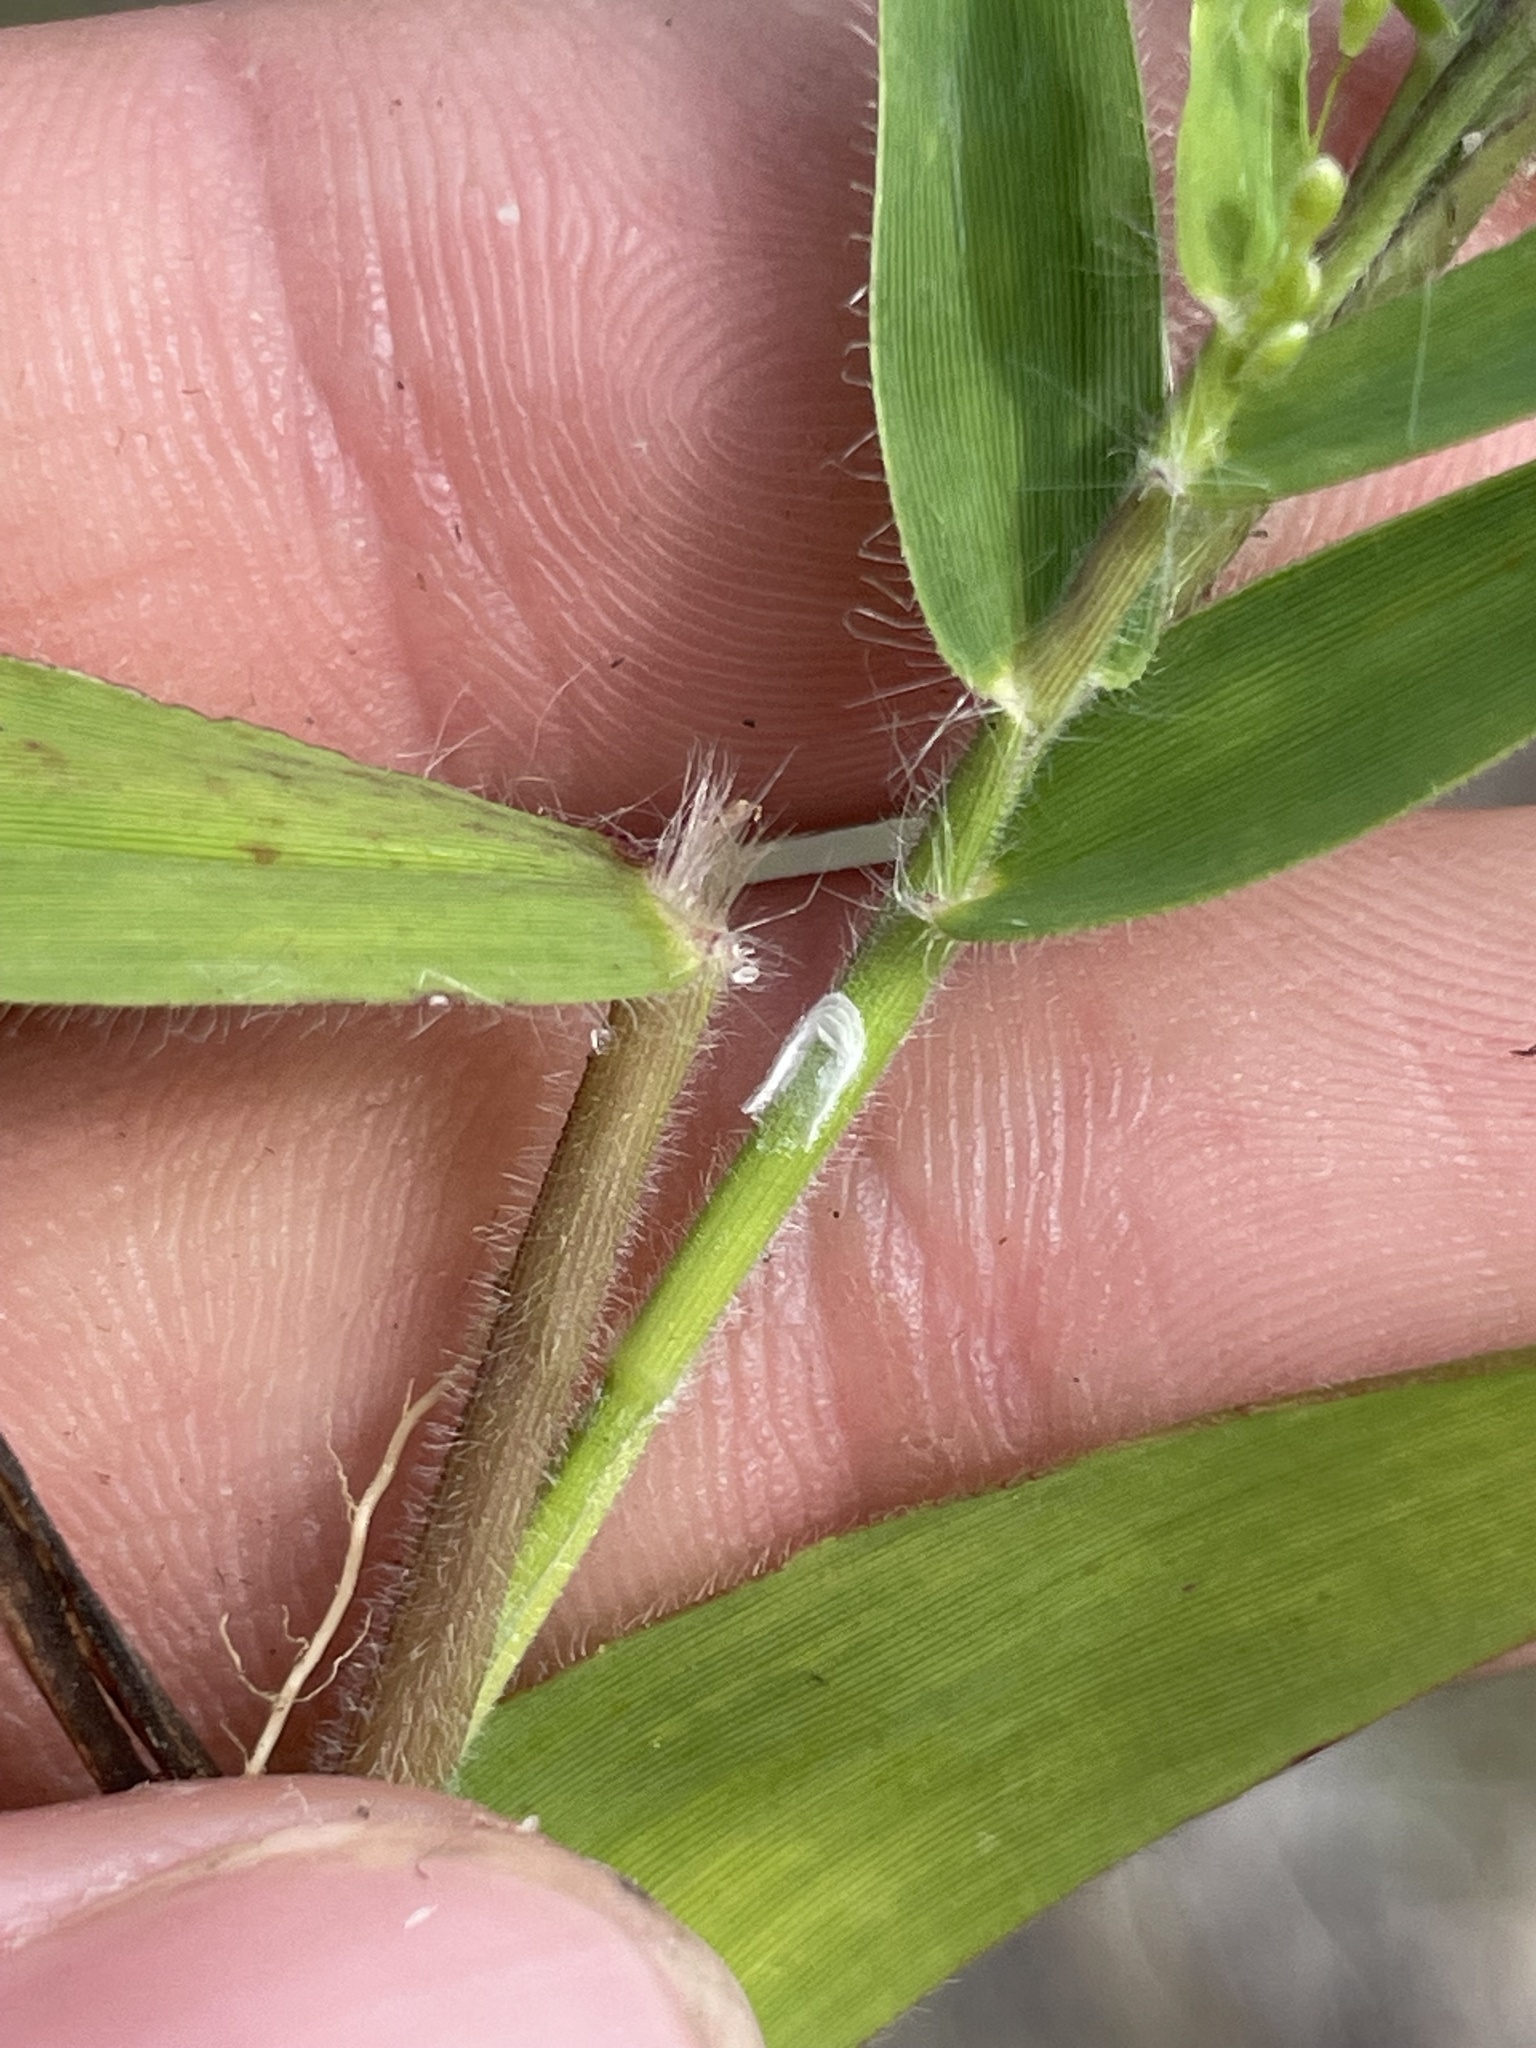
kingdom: Plantae
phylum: Tracheophyta
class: Liliopsida
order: Poales
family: Poaceae
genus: Dichanthelium
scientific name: Dichanthelium acuminatum
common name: Hairy panic grass
